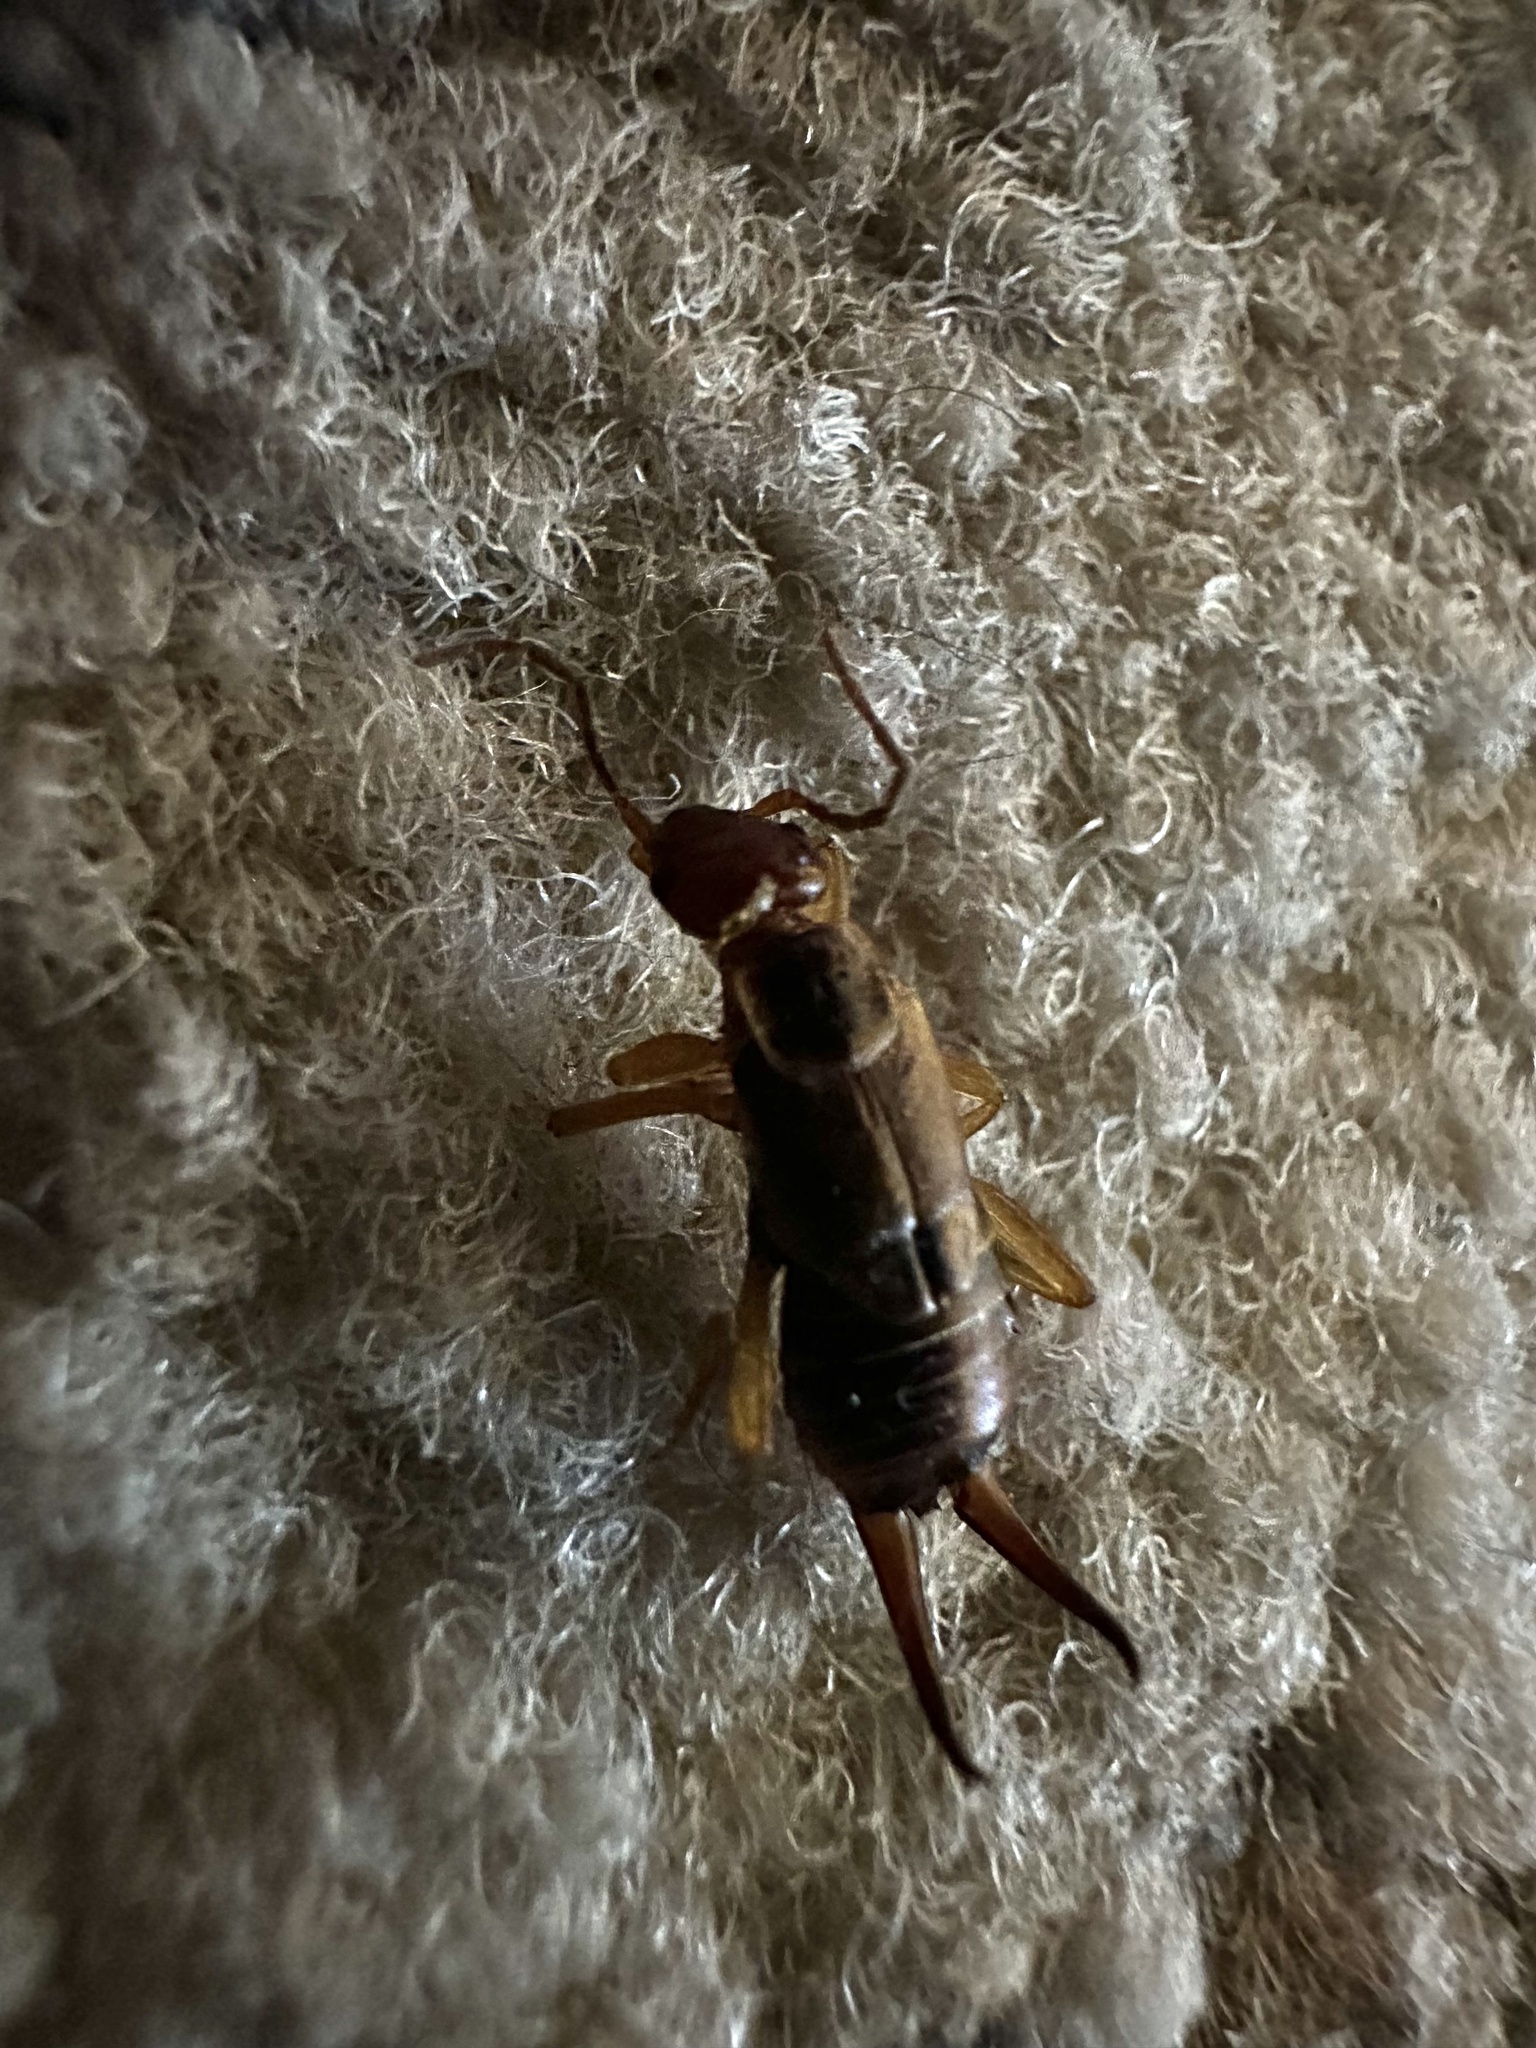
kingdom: Animalia
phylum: Arthropoda
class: Insecta
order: Dermaptera
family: Forficulidae
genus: Forficula
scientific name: Forficula auricularia
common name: European earwig
